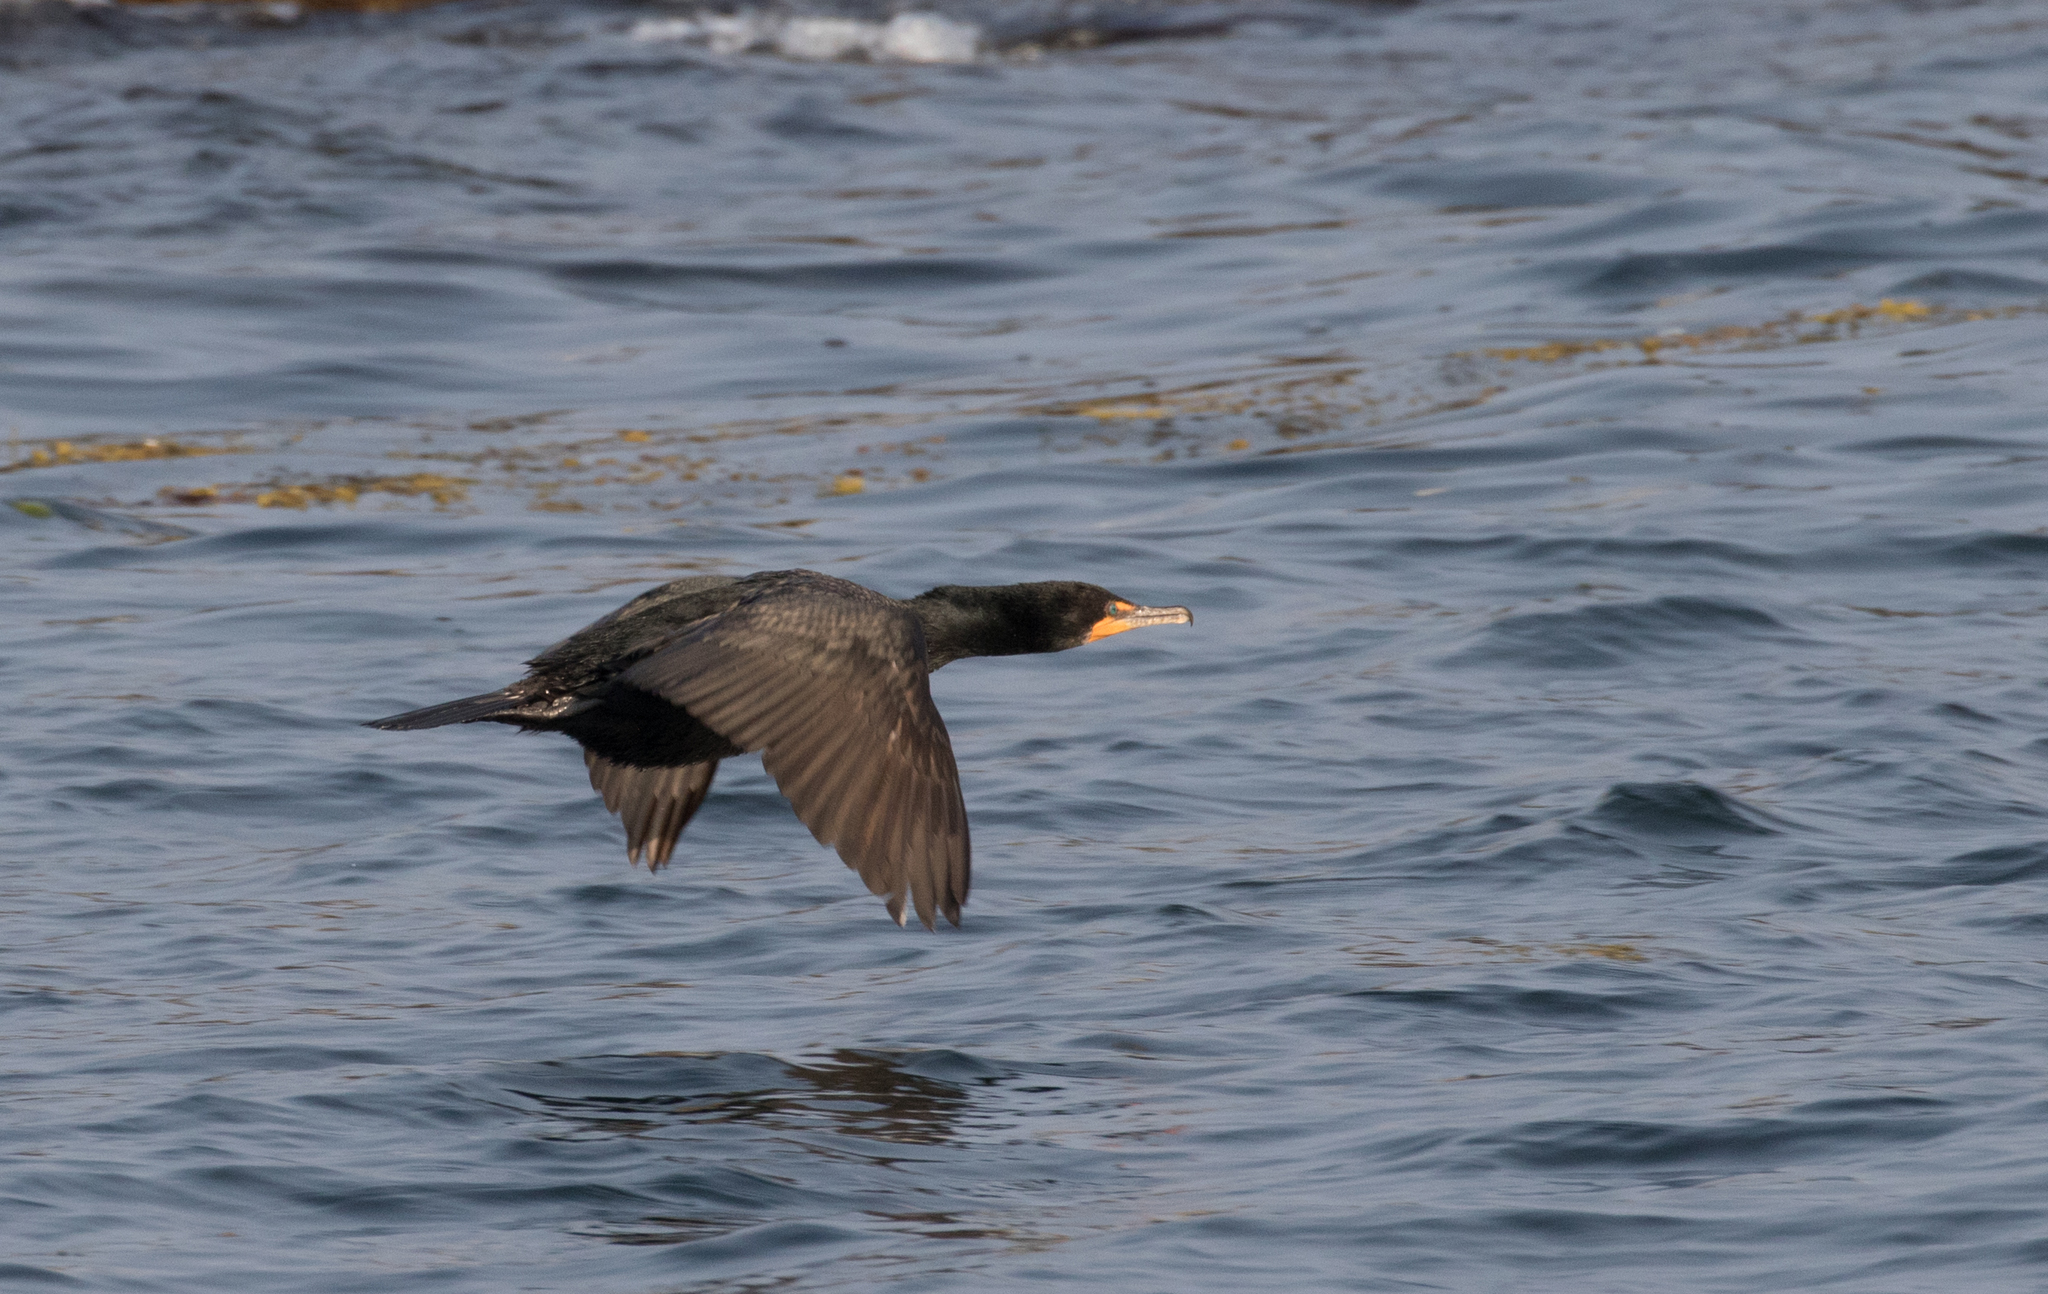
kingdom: Animalia
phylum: Chordata
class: Aves
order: Suliformes
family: Phalacrocoracidae
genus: Phalacrocorax
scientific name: Phalacrocorax auritus
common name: Double-crested cormorant
